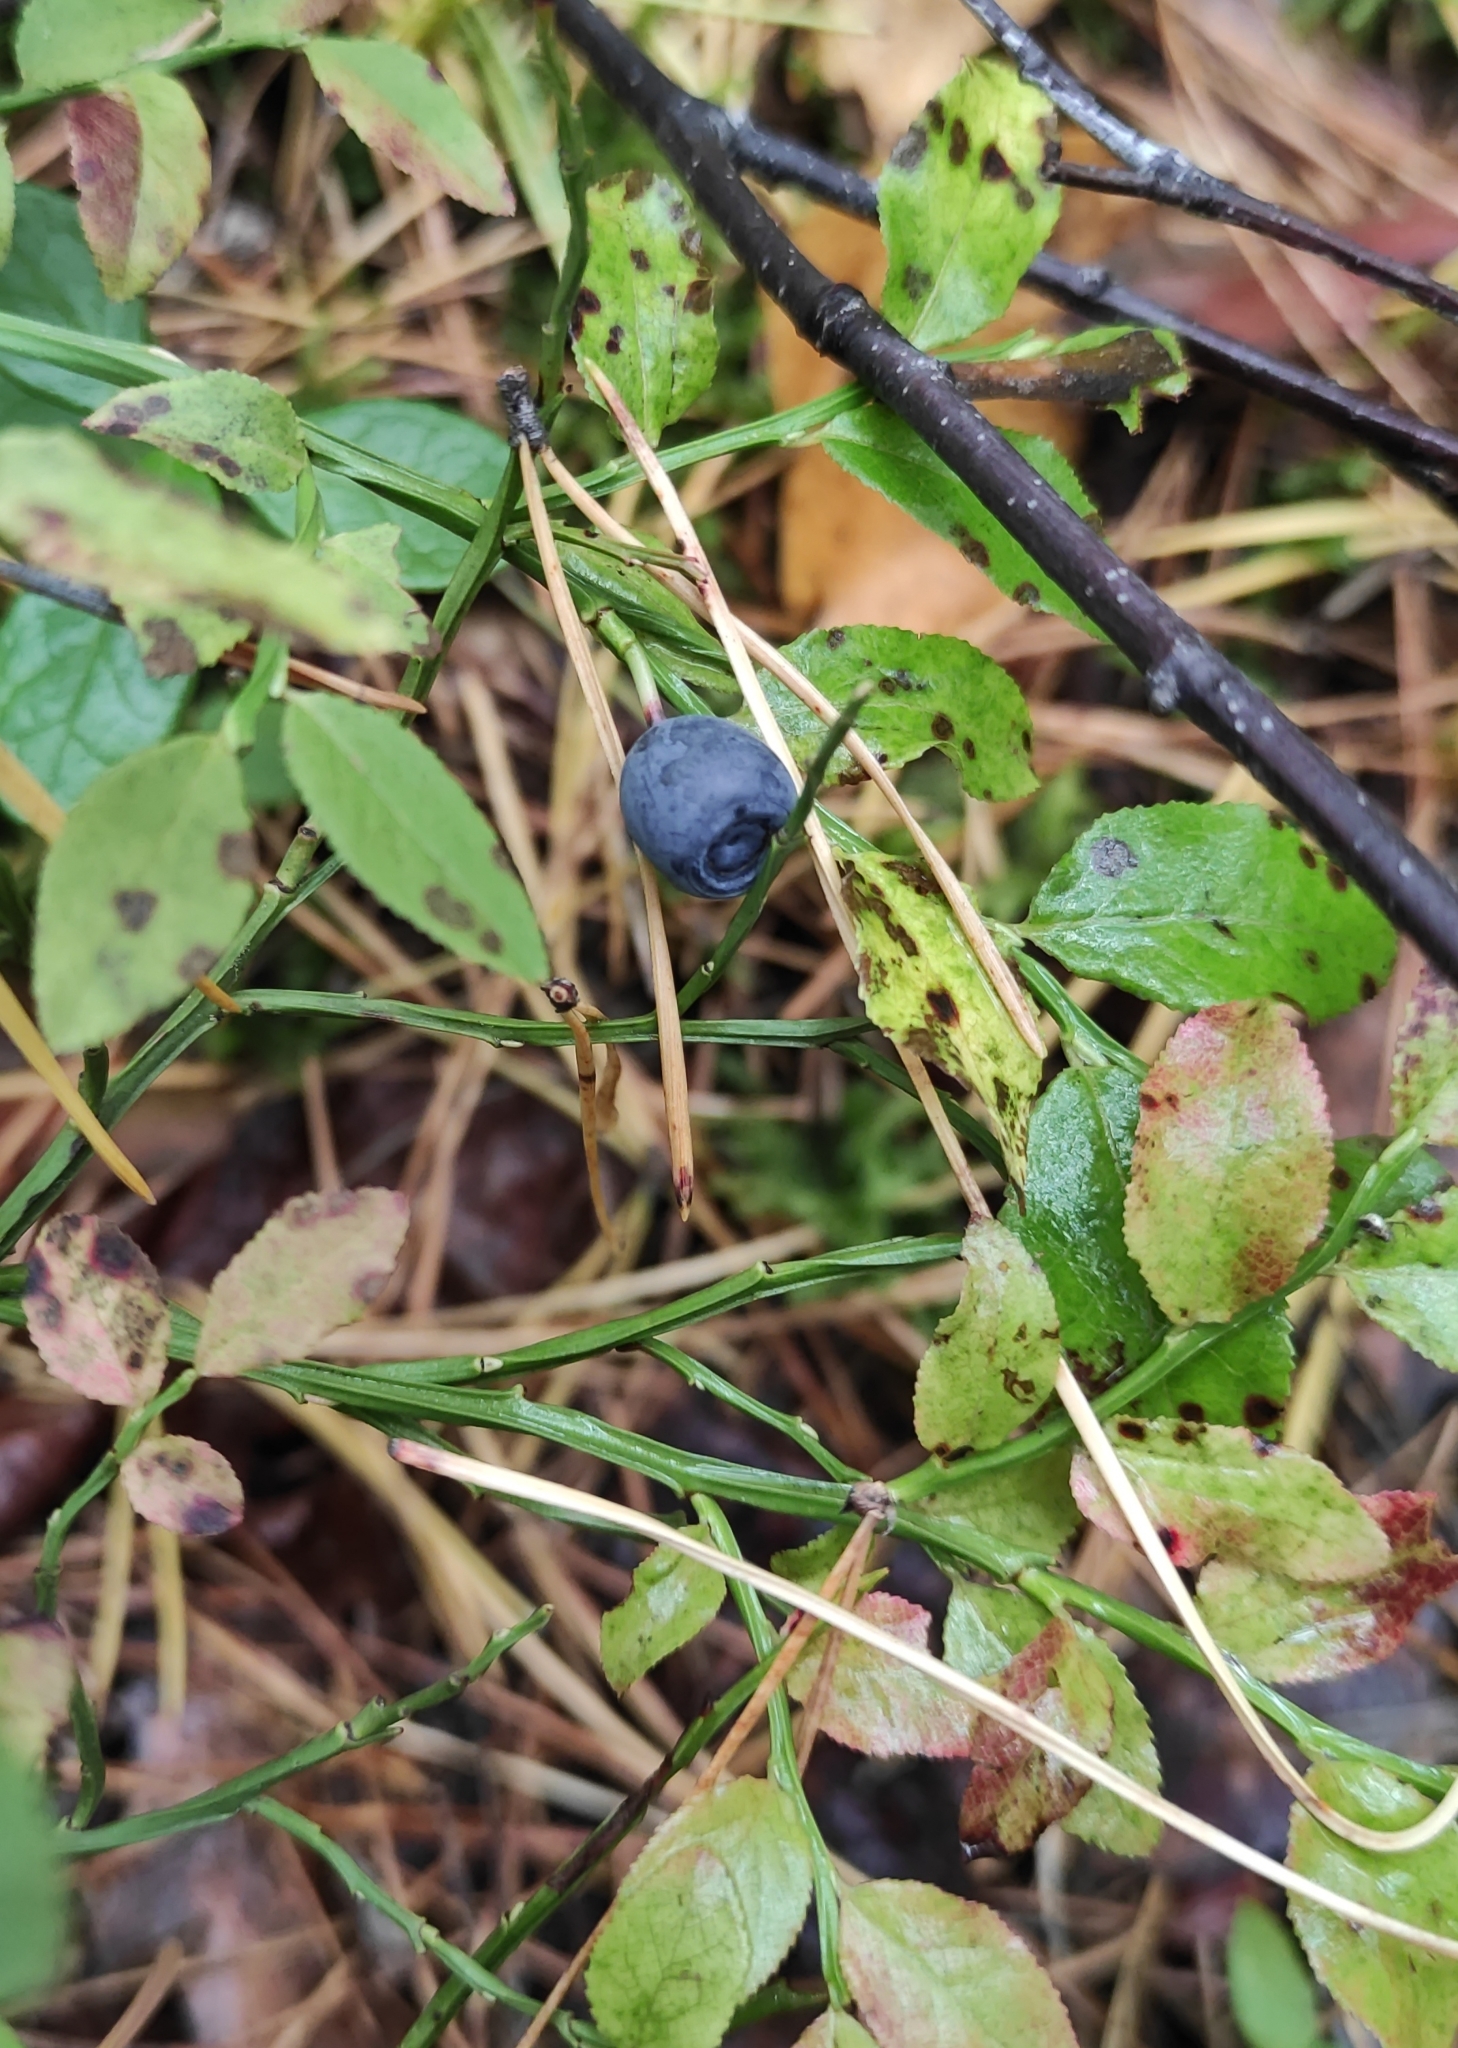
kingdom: Plantae
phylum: Tracheophyta
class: Magnoliopsida
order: Ericales
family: Ericaceae
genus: Vaccinium
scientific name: Vaccinium myrtillus
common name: Bilberry
